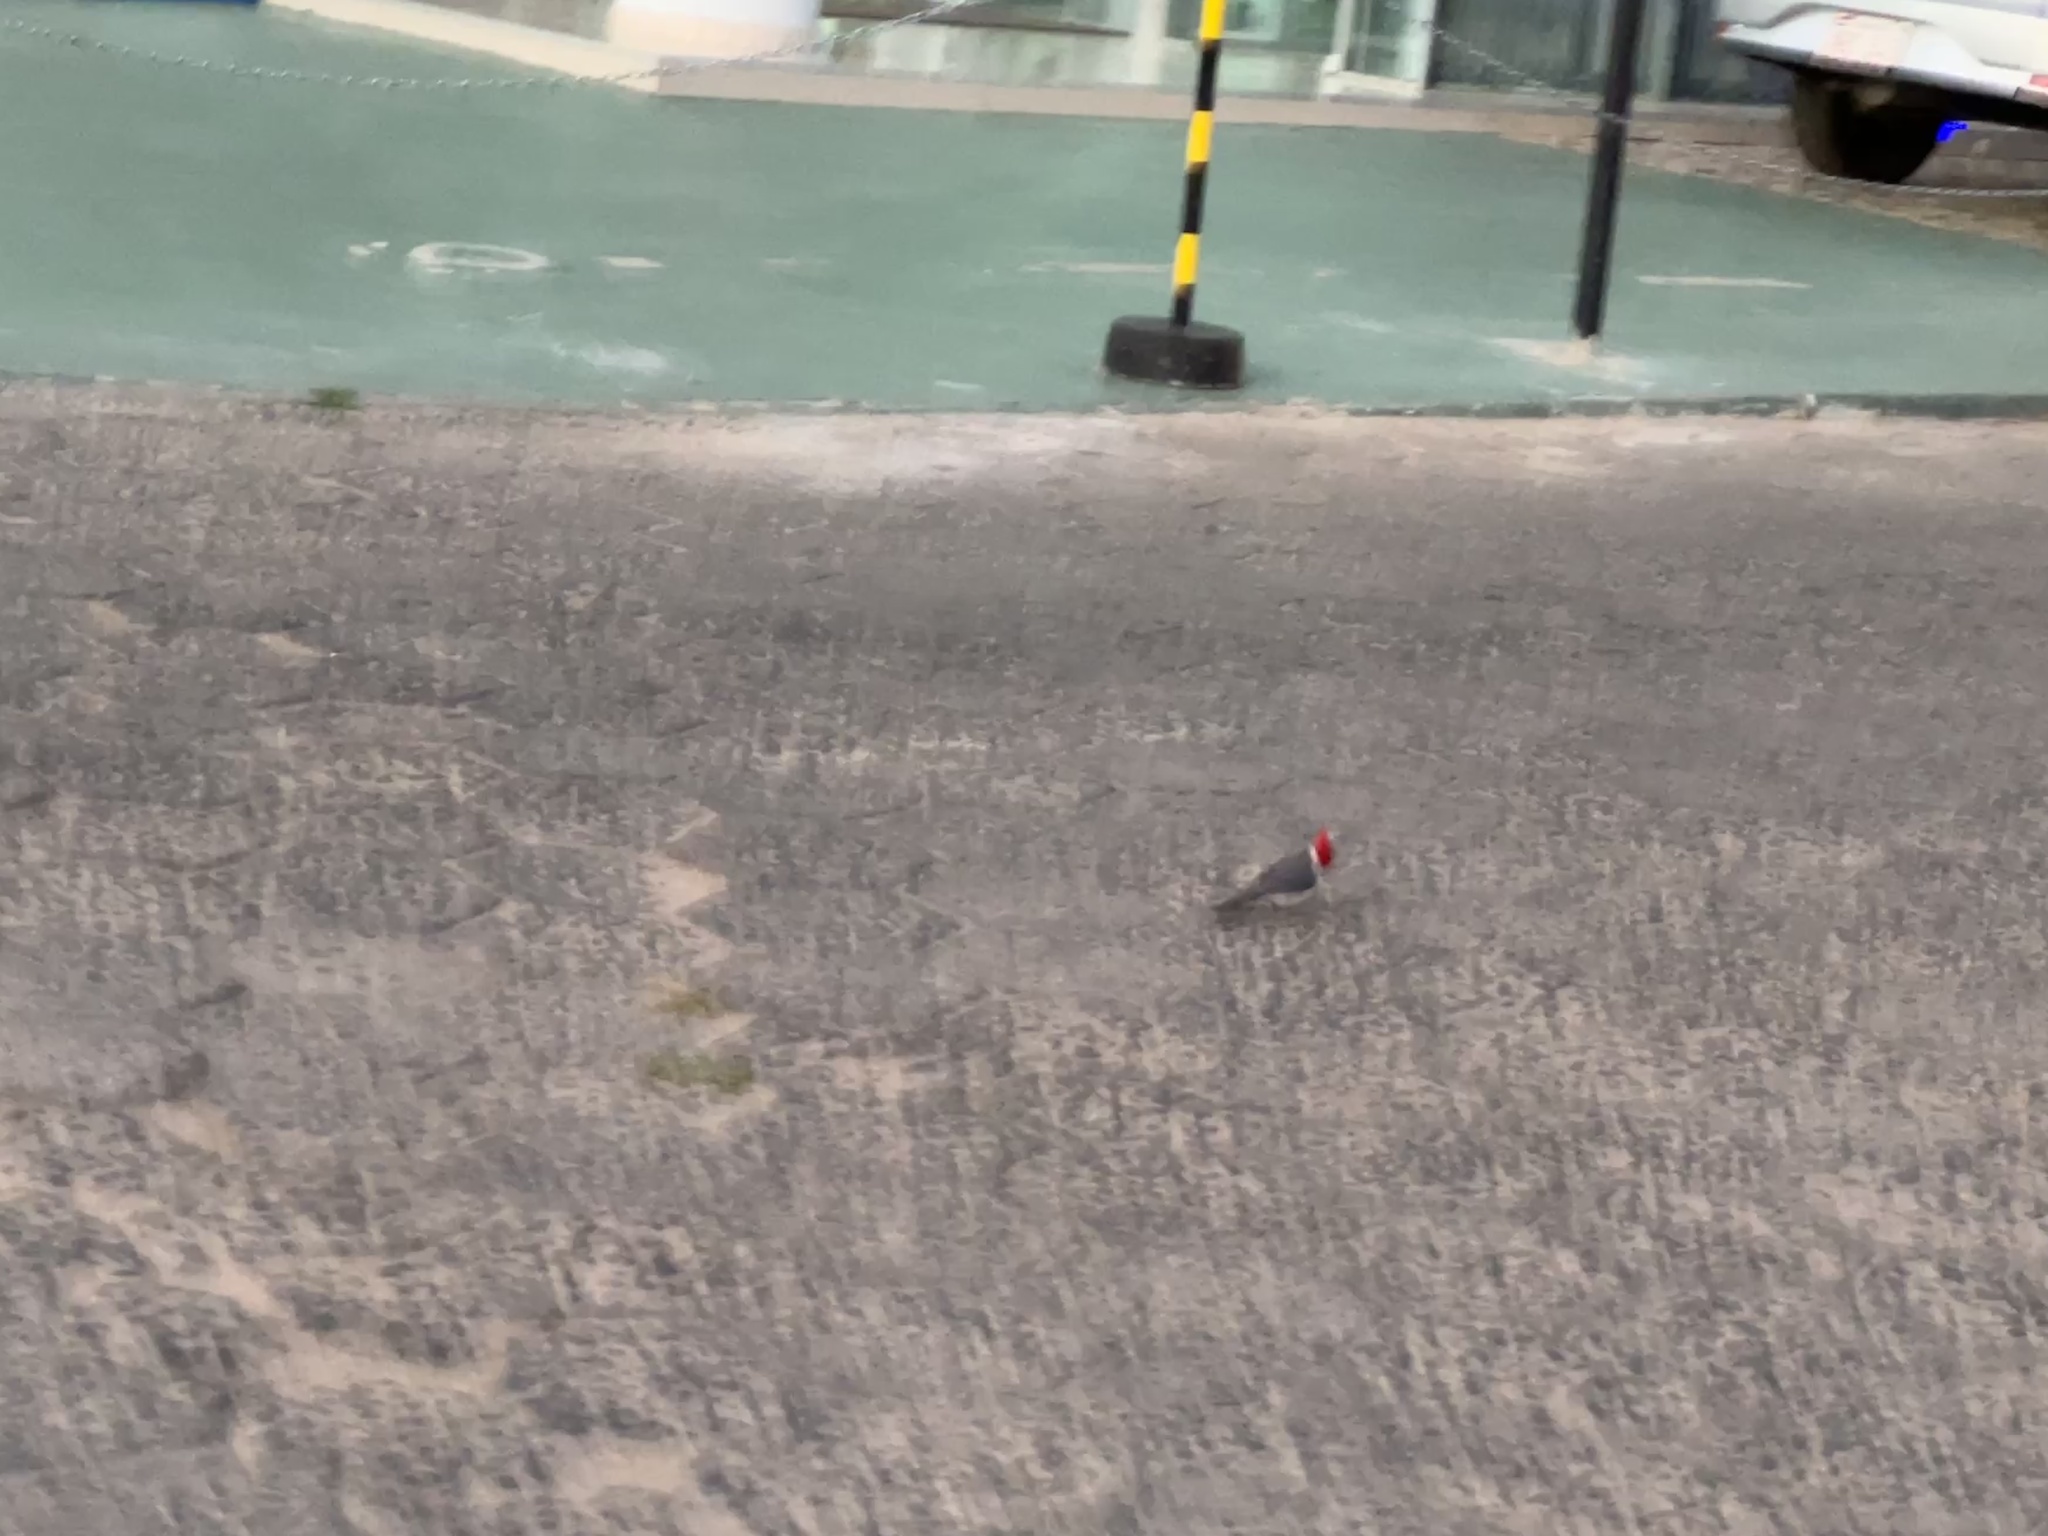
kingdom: Animalia
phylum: Chordata
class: Aves
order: Passeriformes
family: Thraupidae
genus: Paroaria
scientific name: Paroaria coronata
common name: Red-crested cardinal
